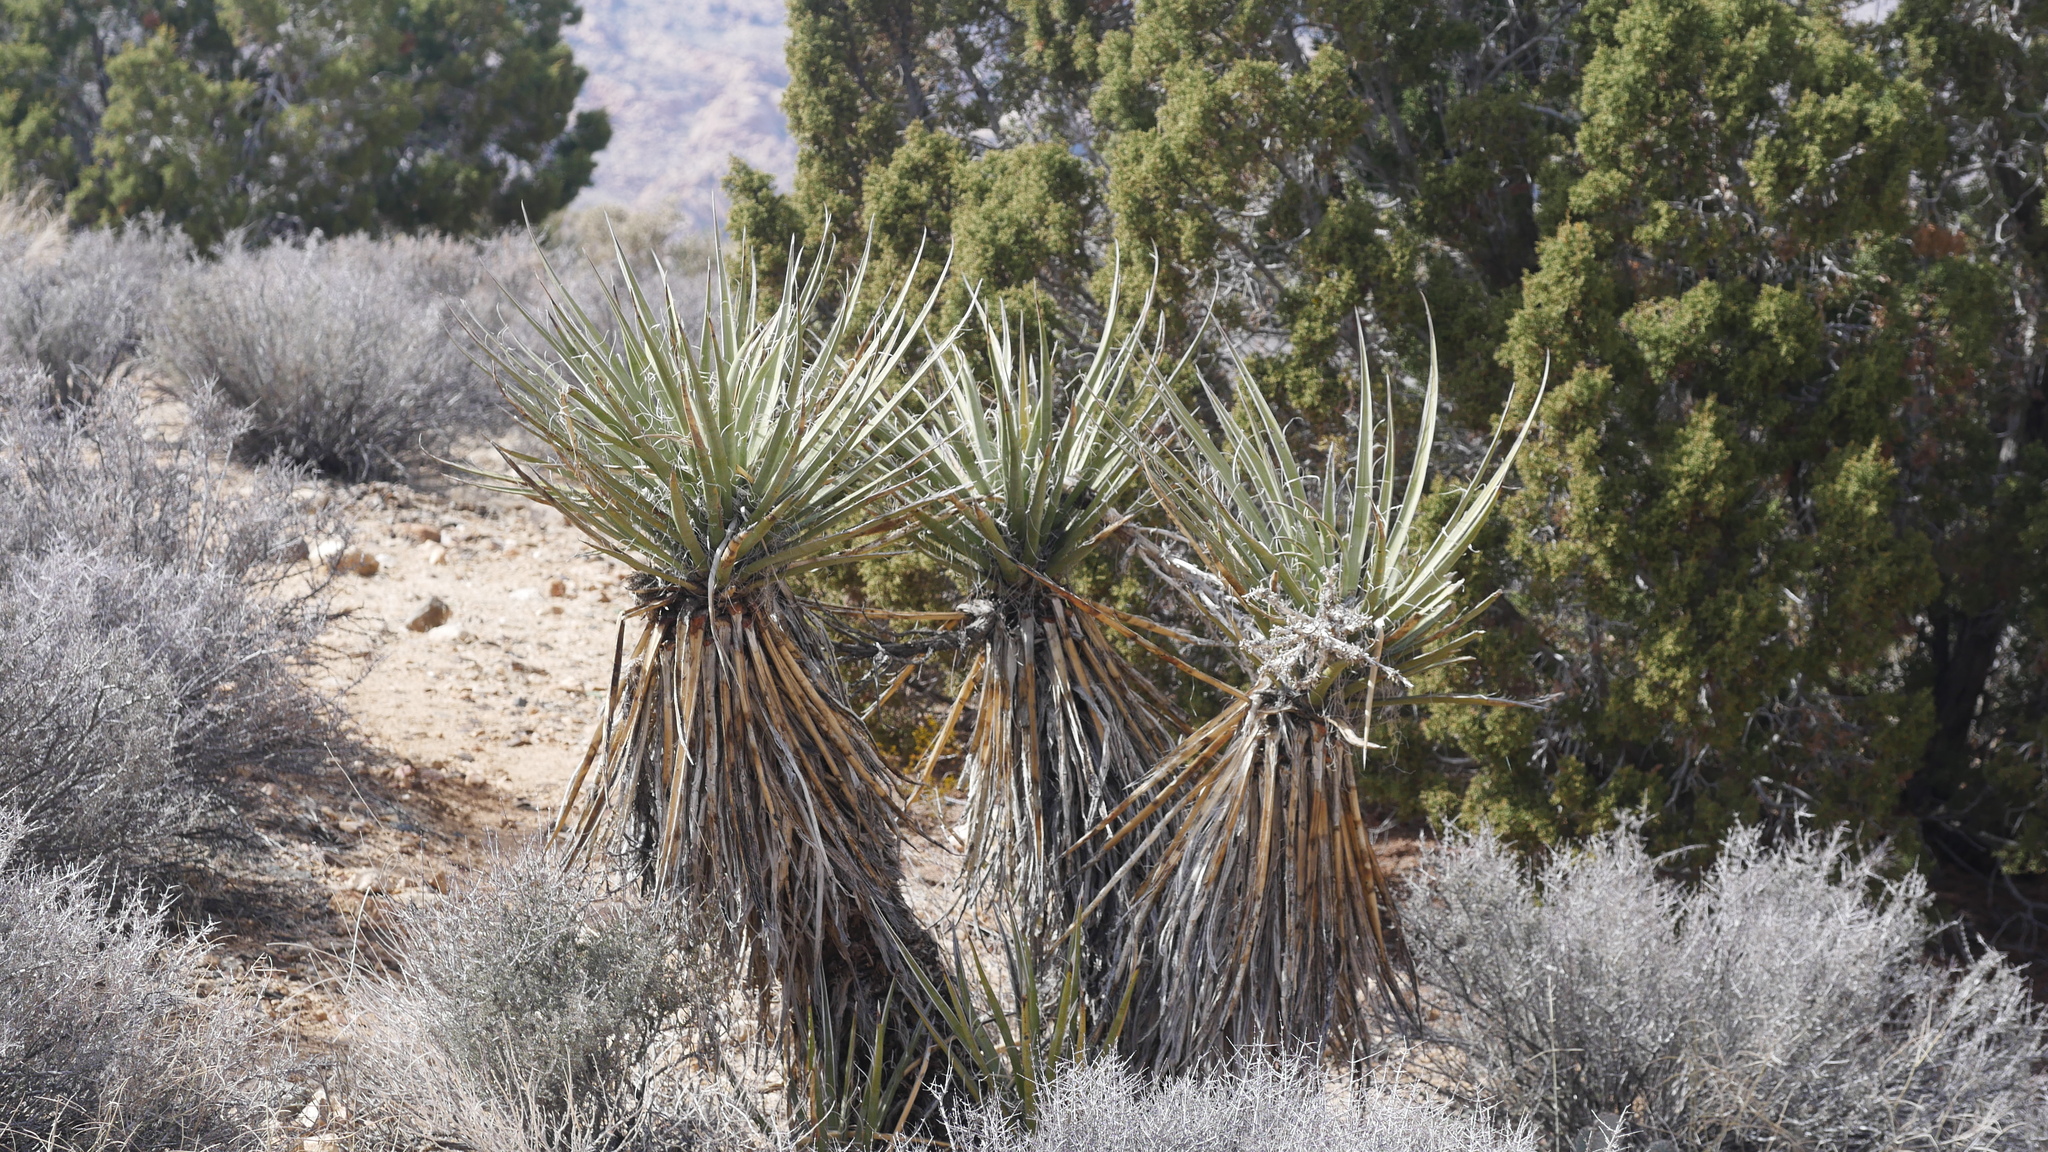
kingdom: Plantae
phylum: Tracheophyta
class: Liliopsida
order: Asparagales
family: Asparagaceae
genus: Yucca
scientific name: Yucca schidigera
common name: Mojave yucca
